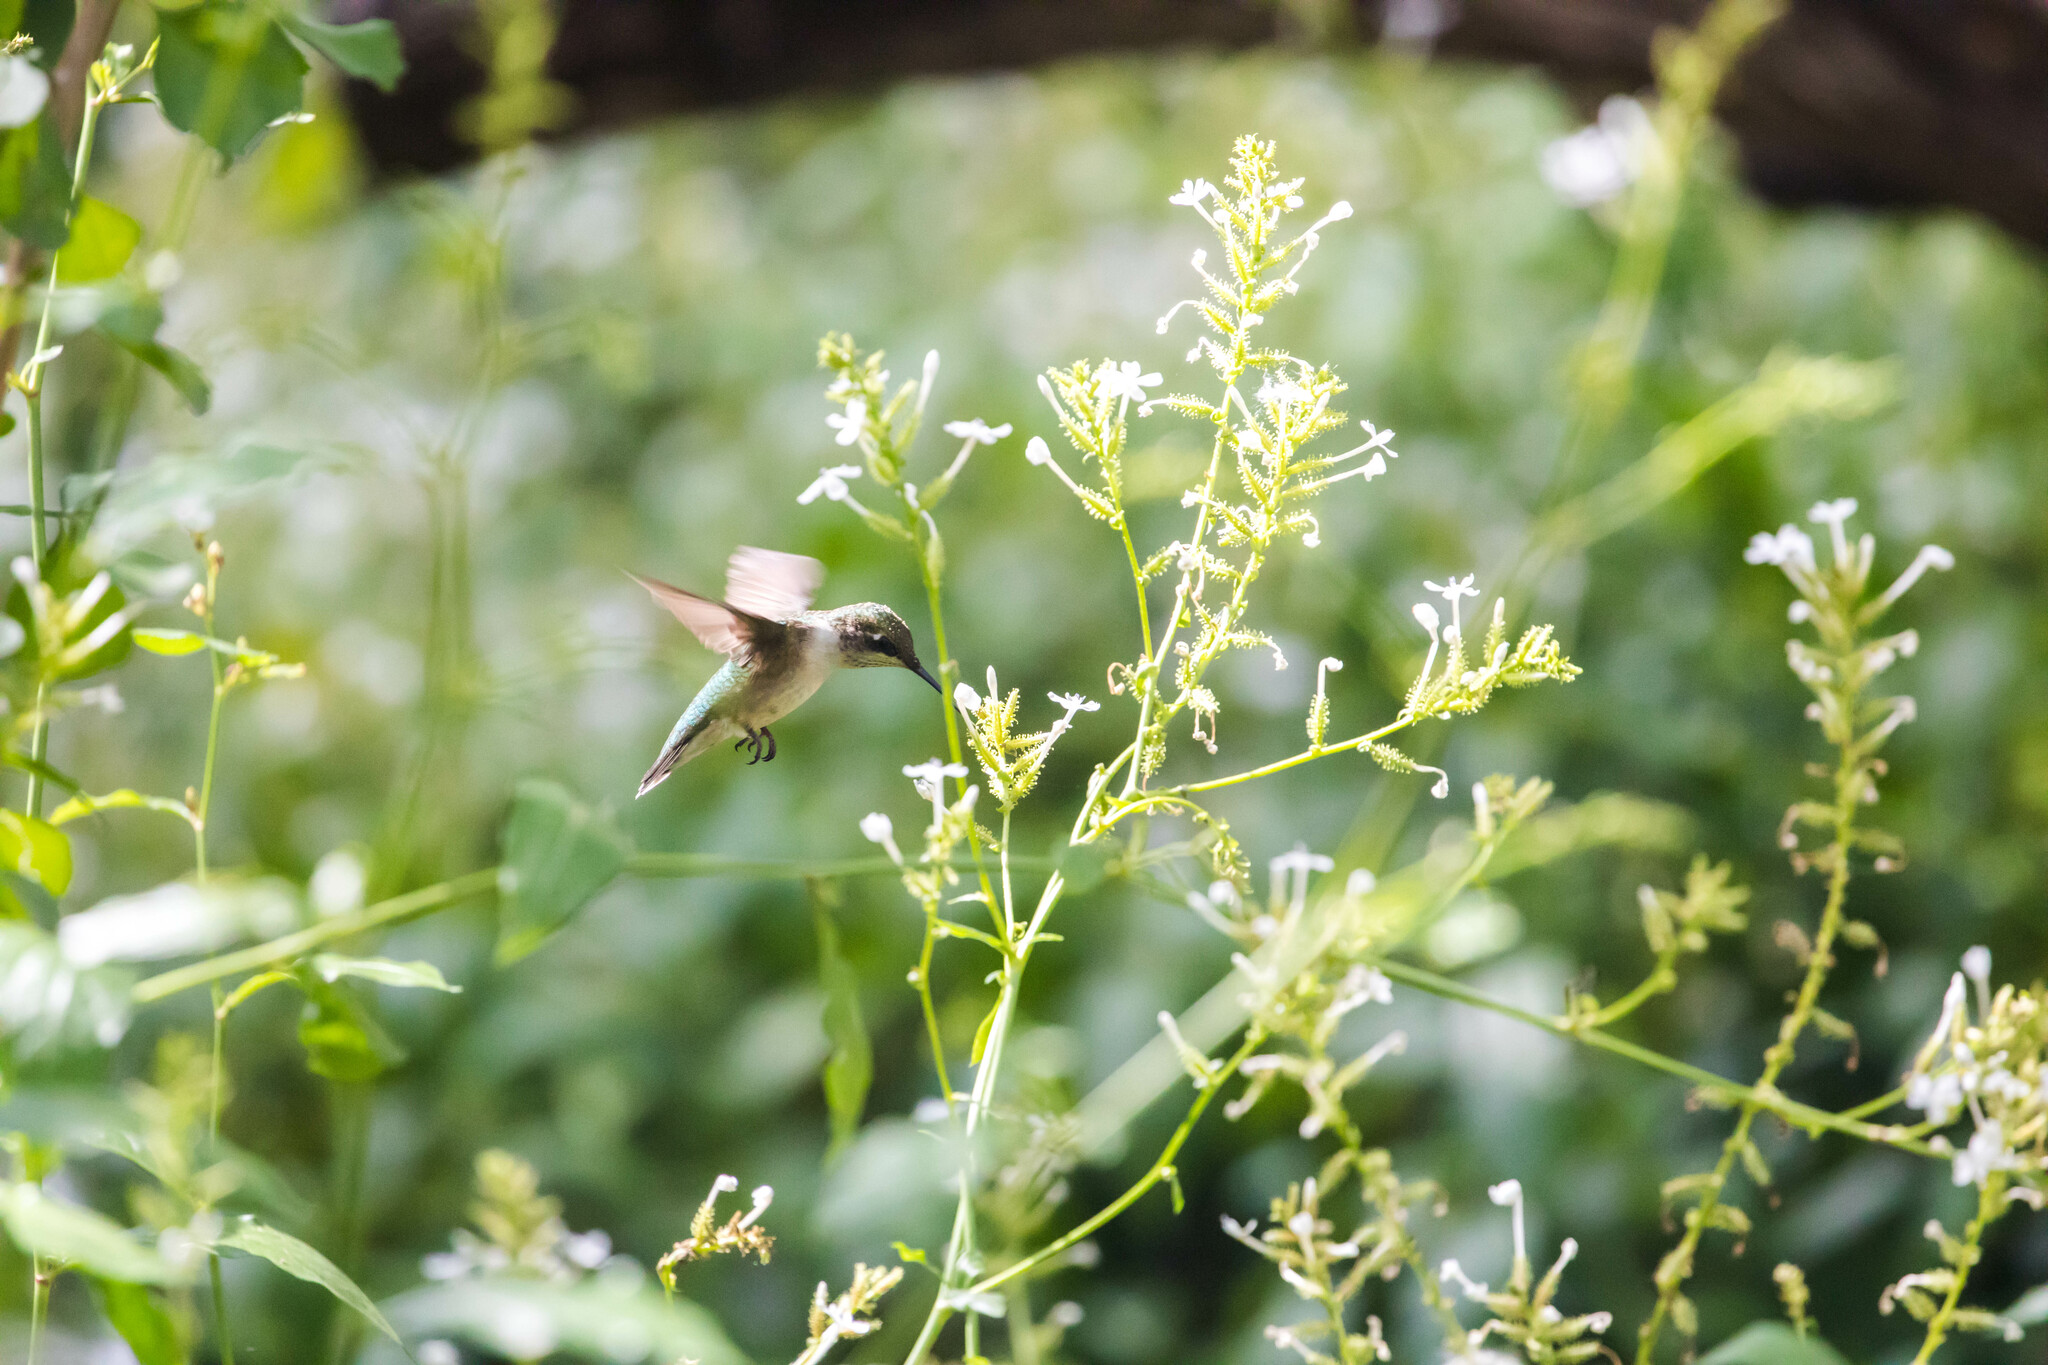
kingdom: Animalia
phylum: Chordata
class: Aves
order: Apodiformes
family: Trochilidae
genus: Archilochus
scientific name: Archilochus colubris
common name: Ruby-throated hummingbird
